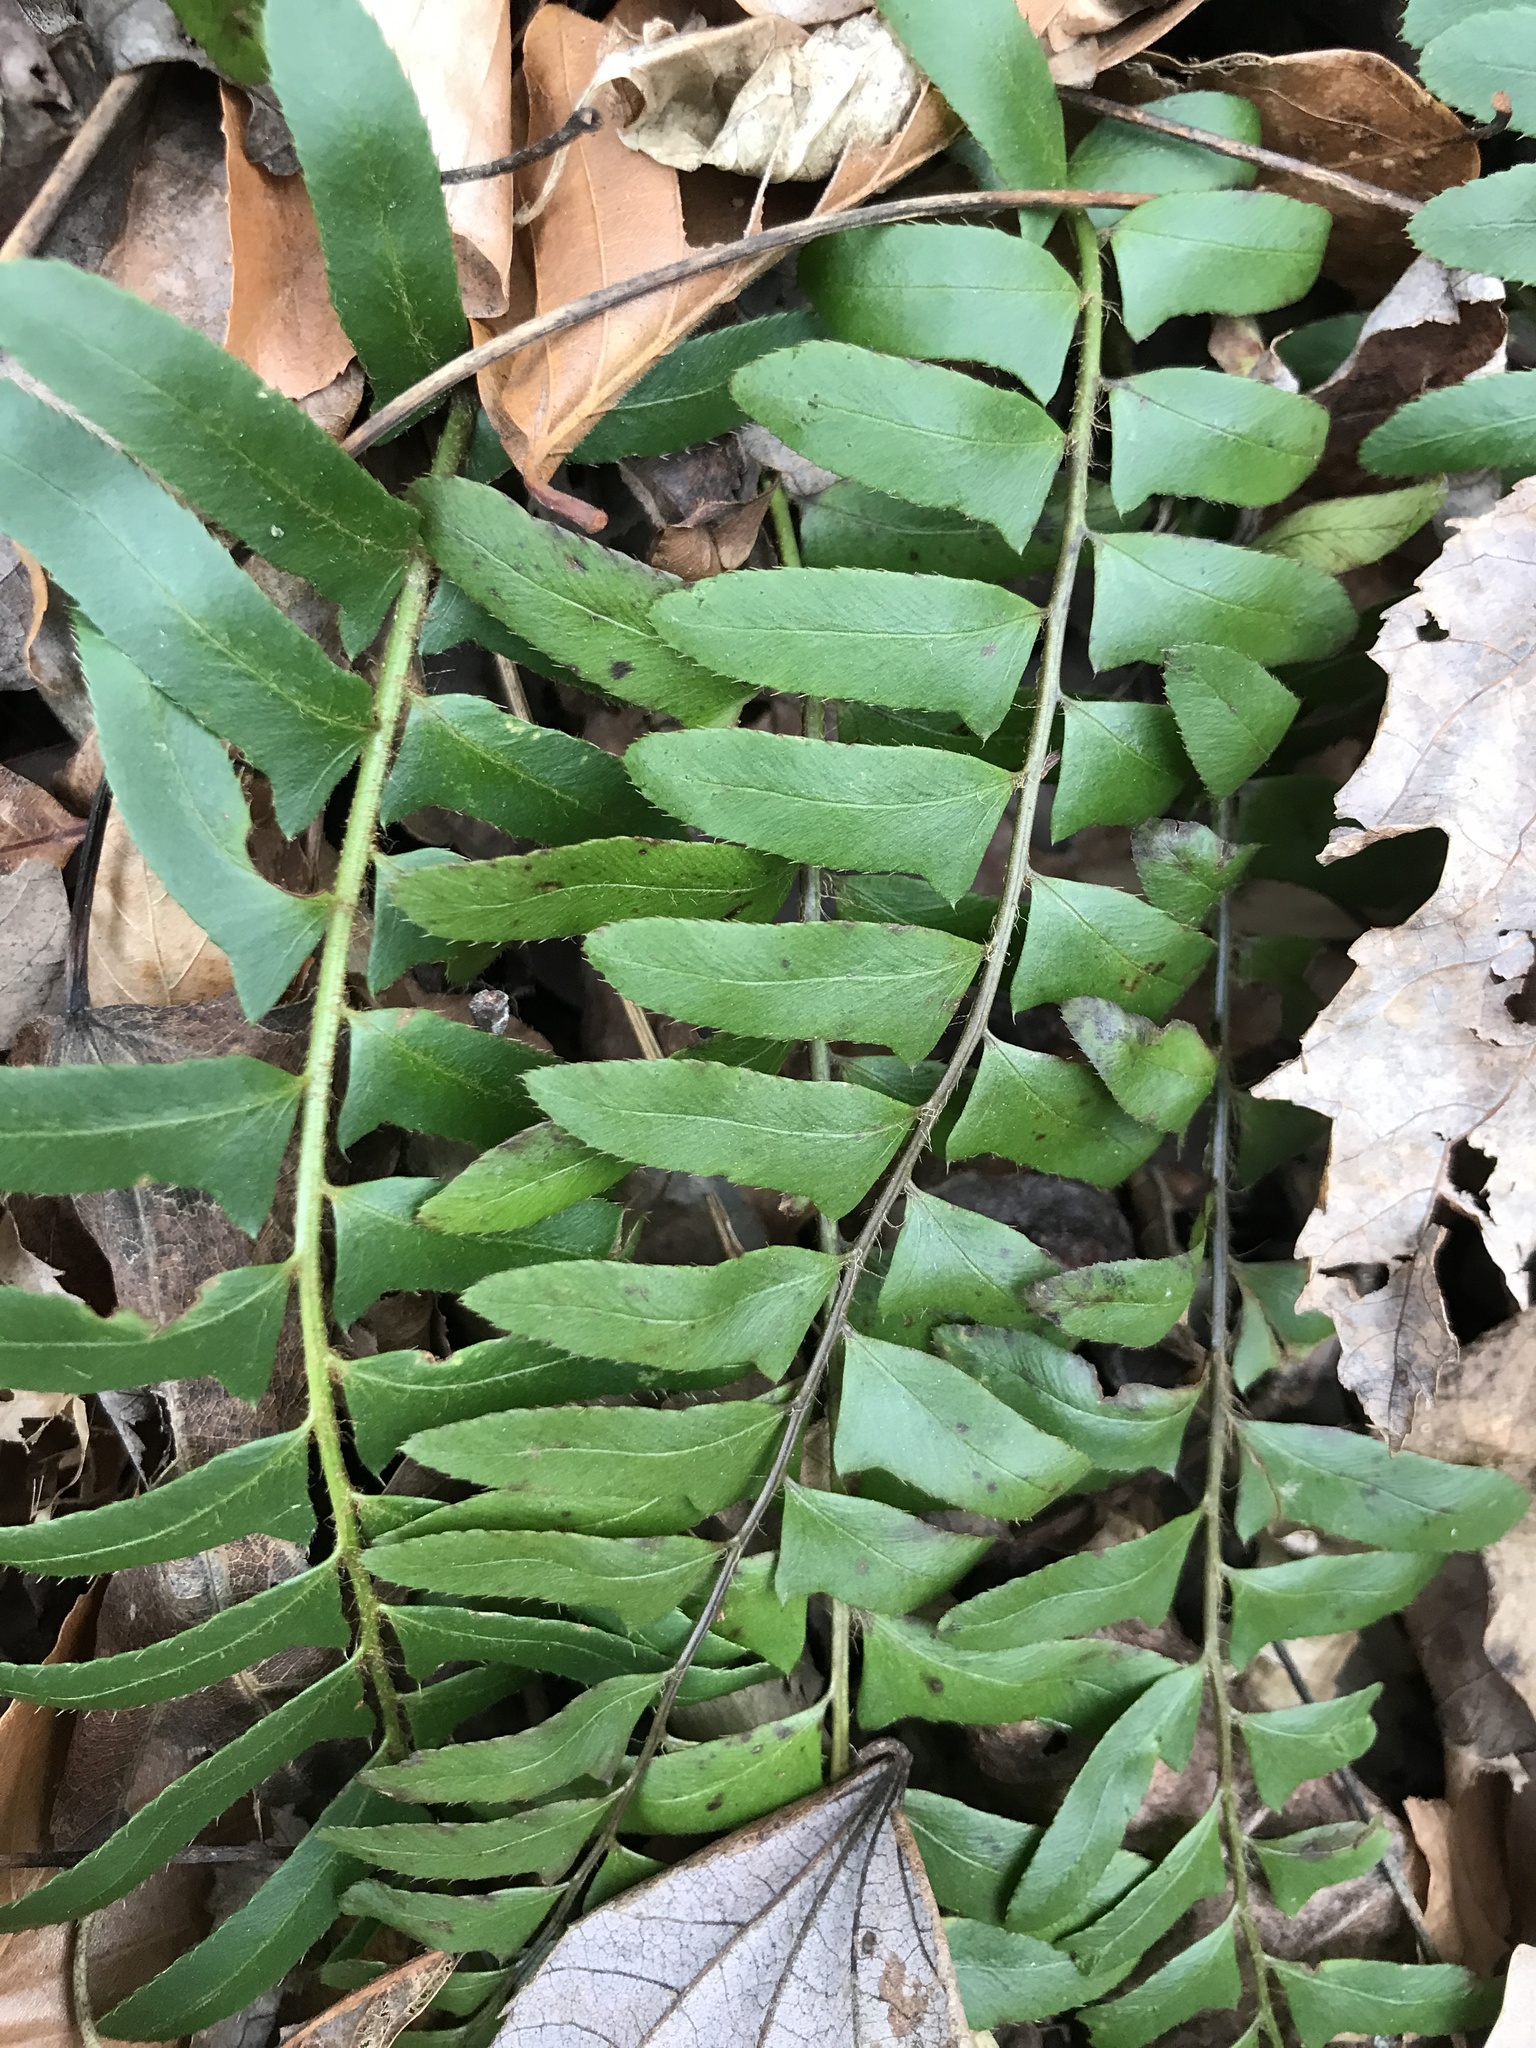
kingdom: Plantae
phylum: Tracheophyta
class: Polypodiopsida
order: Polypodiales
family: Dryopteridaceae
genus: Polystichum
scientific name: Polystichum acrostichoides
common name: Christmas fern
